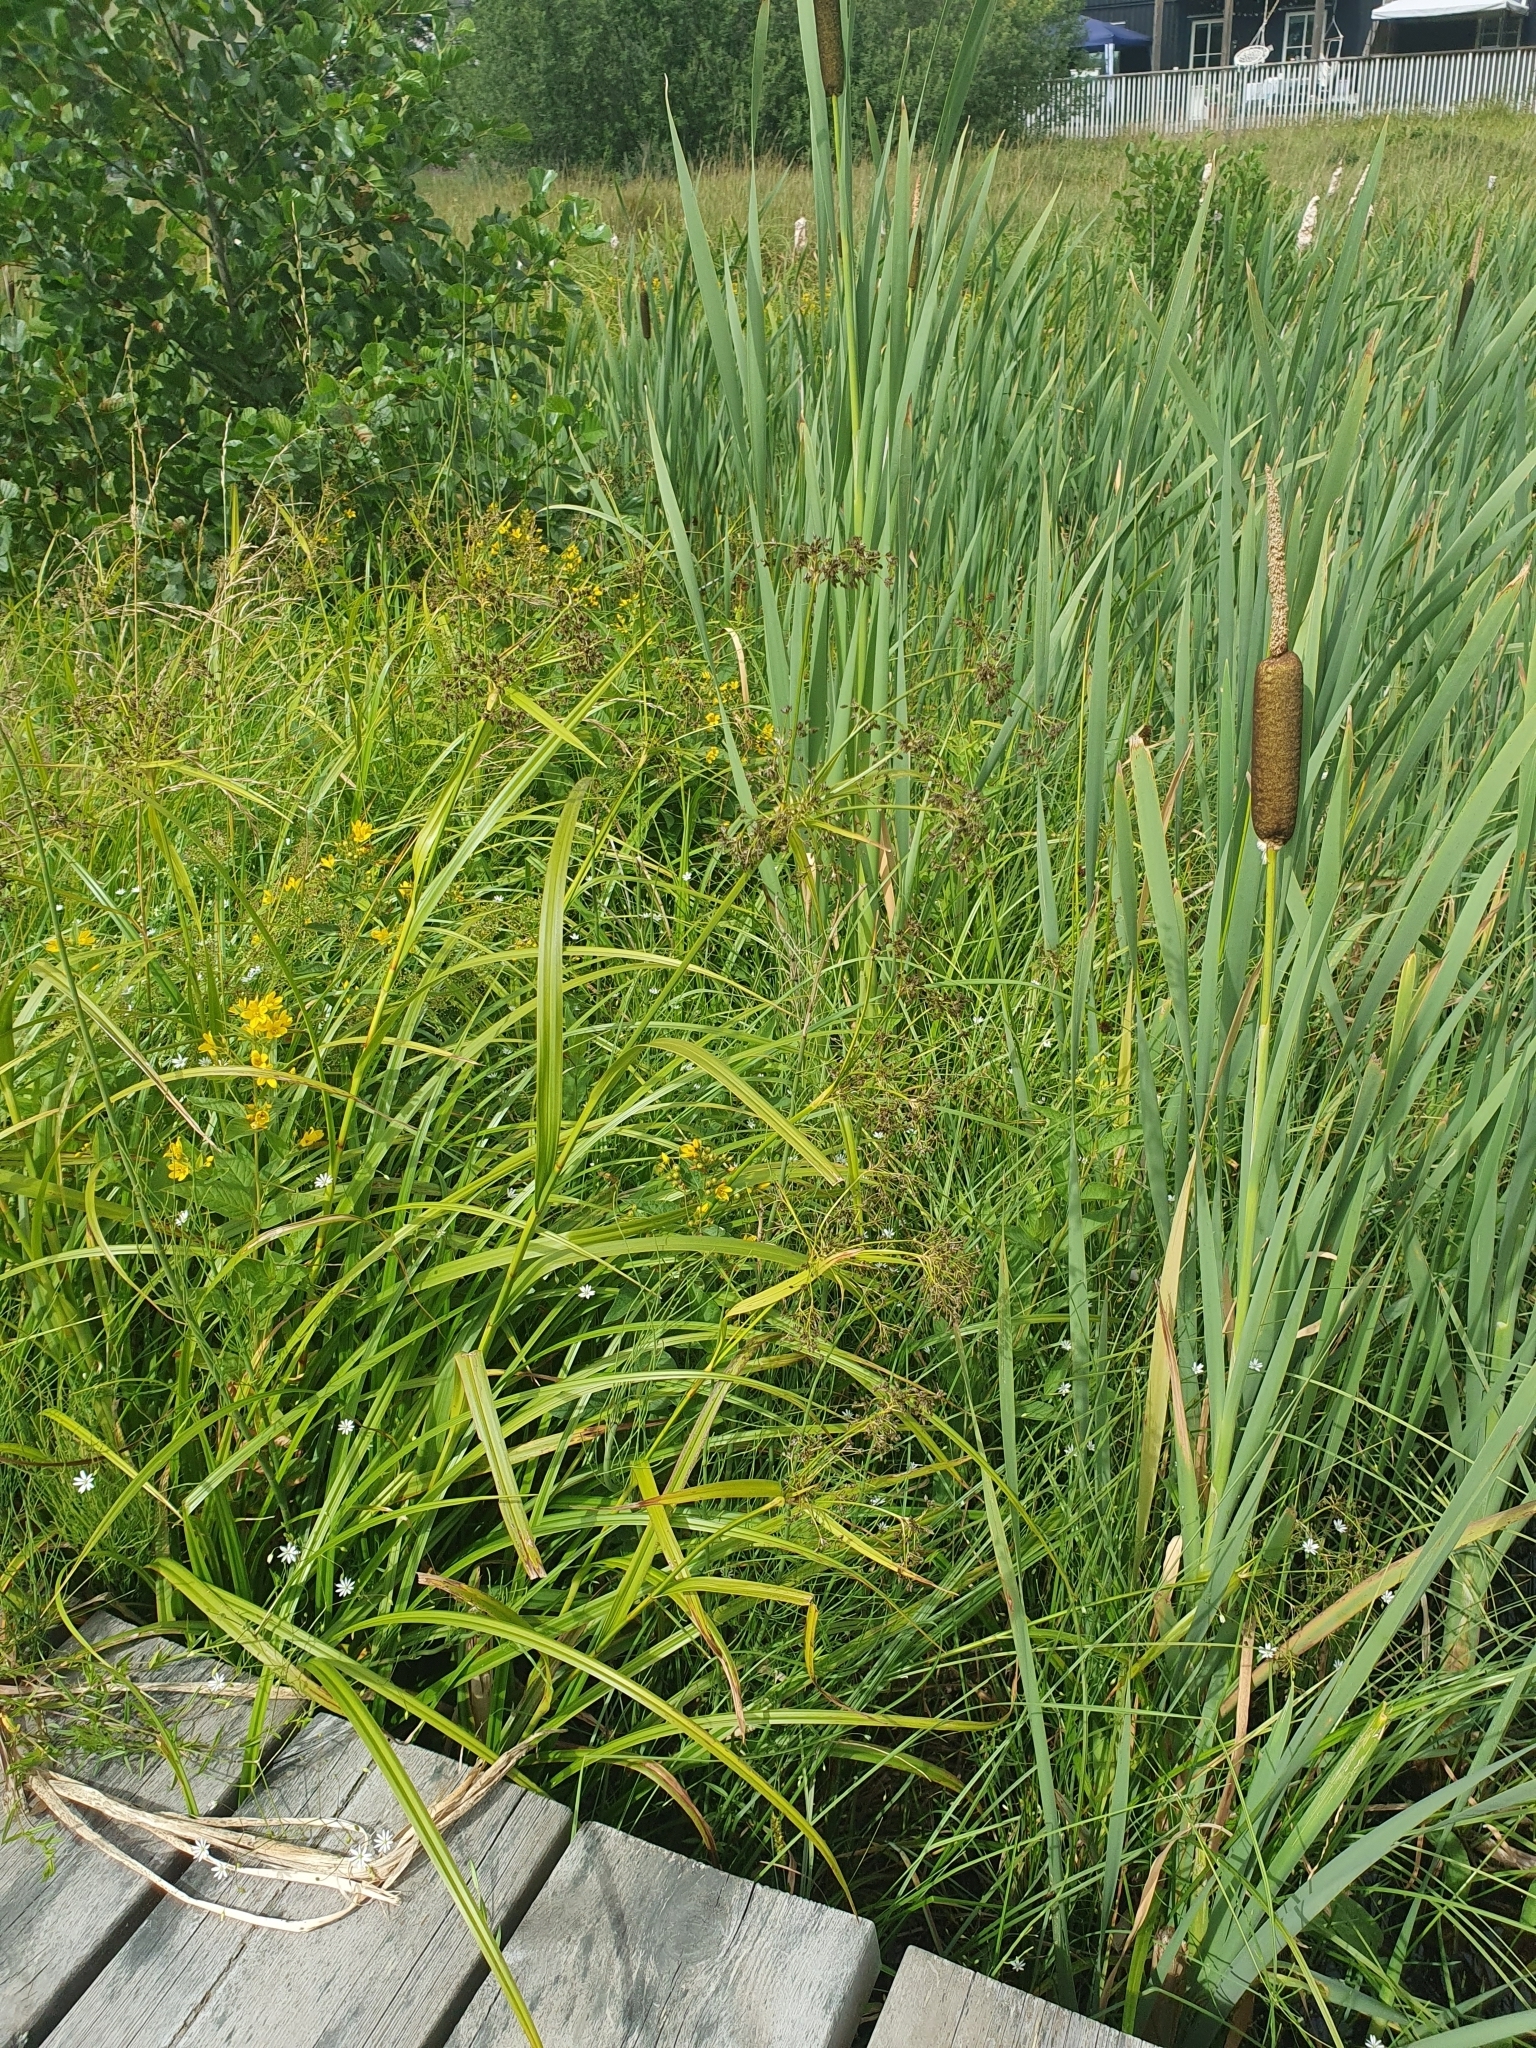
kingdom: Plantae
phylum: Tracheophyta
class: Magnoliopsida
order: Ericales
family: Primulaceae
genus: Lysimachia
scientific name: Lysimachia vulgaris
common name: Yellow loosestrife
